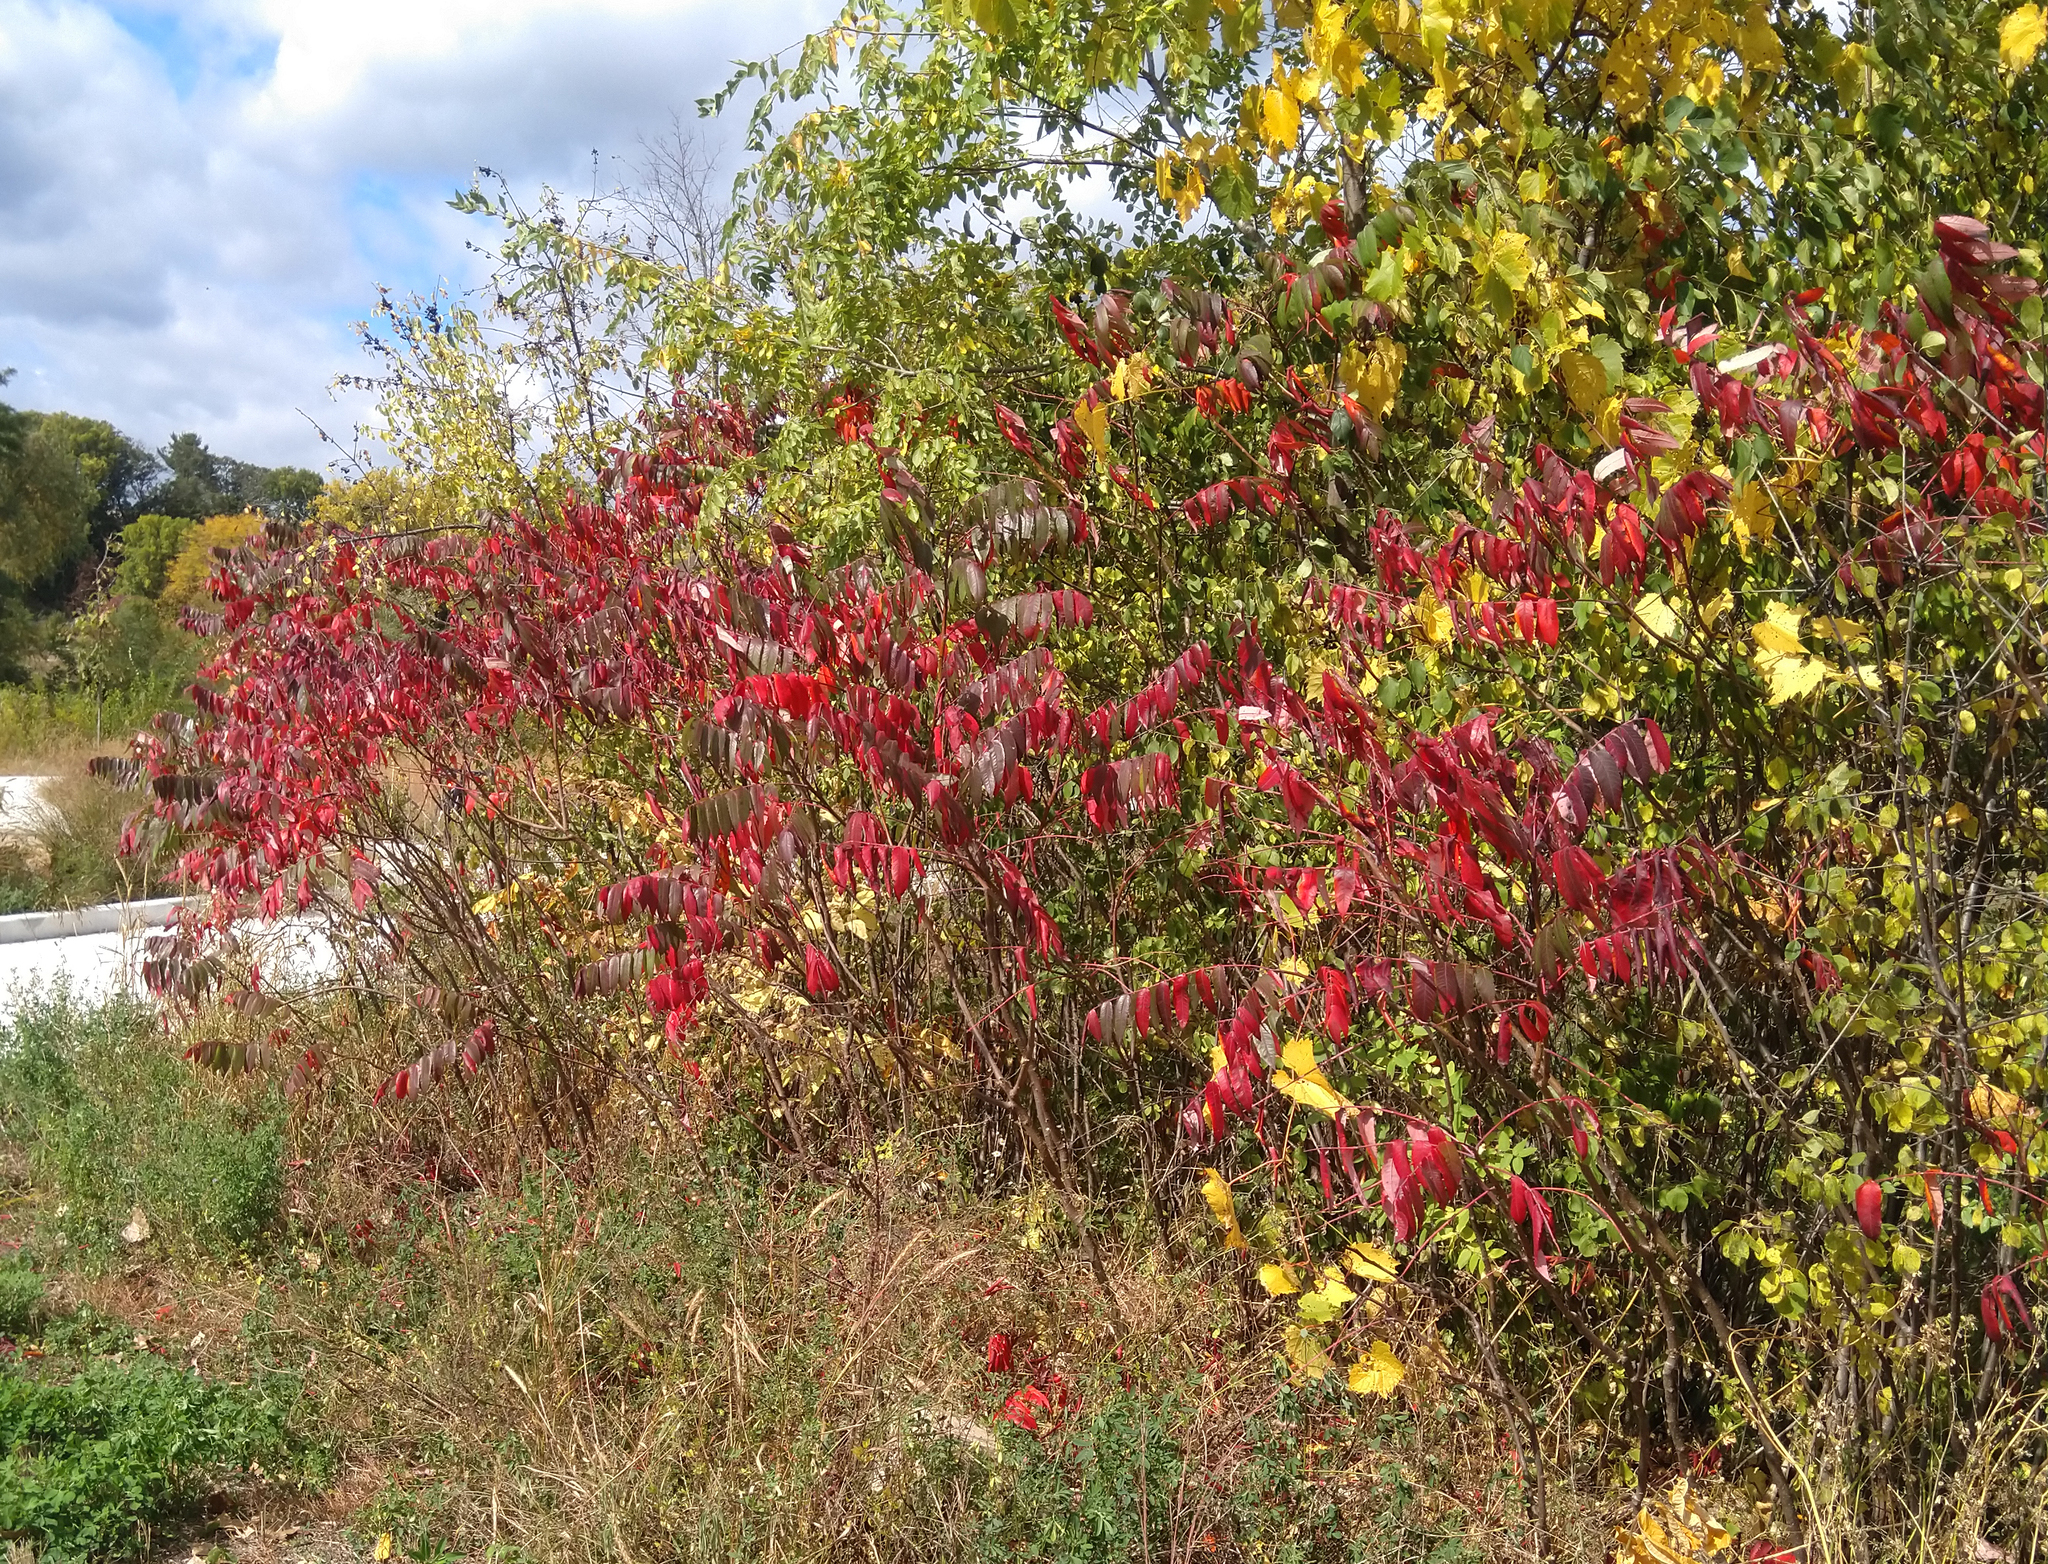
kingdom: Plantae
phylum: Tracheophyta
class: Magnoliopsida
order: Sapindales
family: Anacardiaceae
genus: Rhus
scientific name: Rhus glabra
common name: Scarlet sumac
